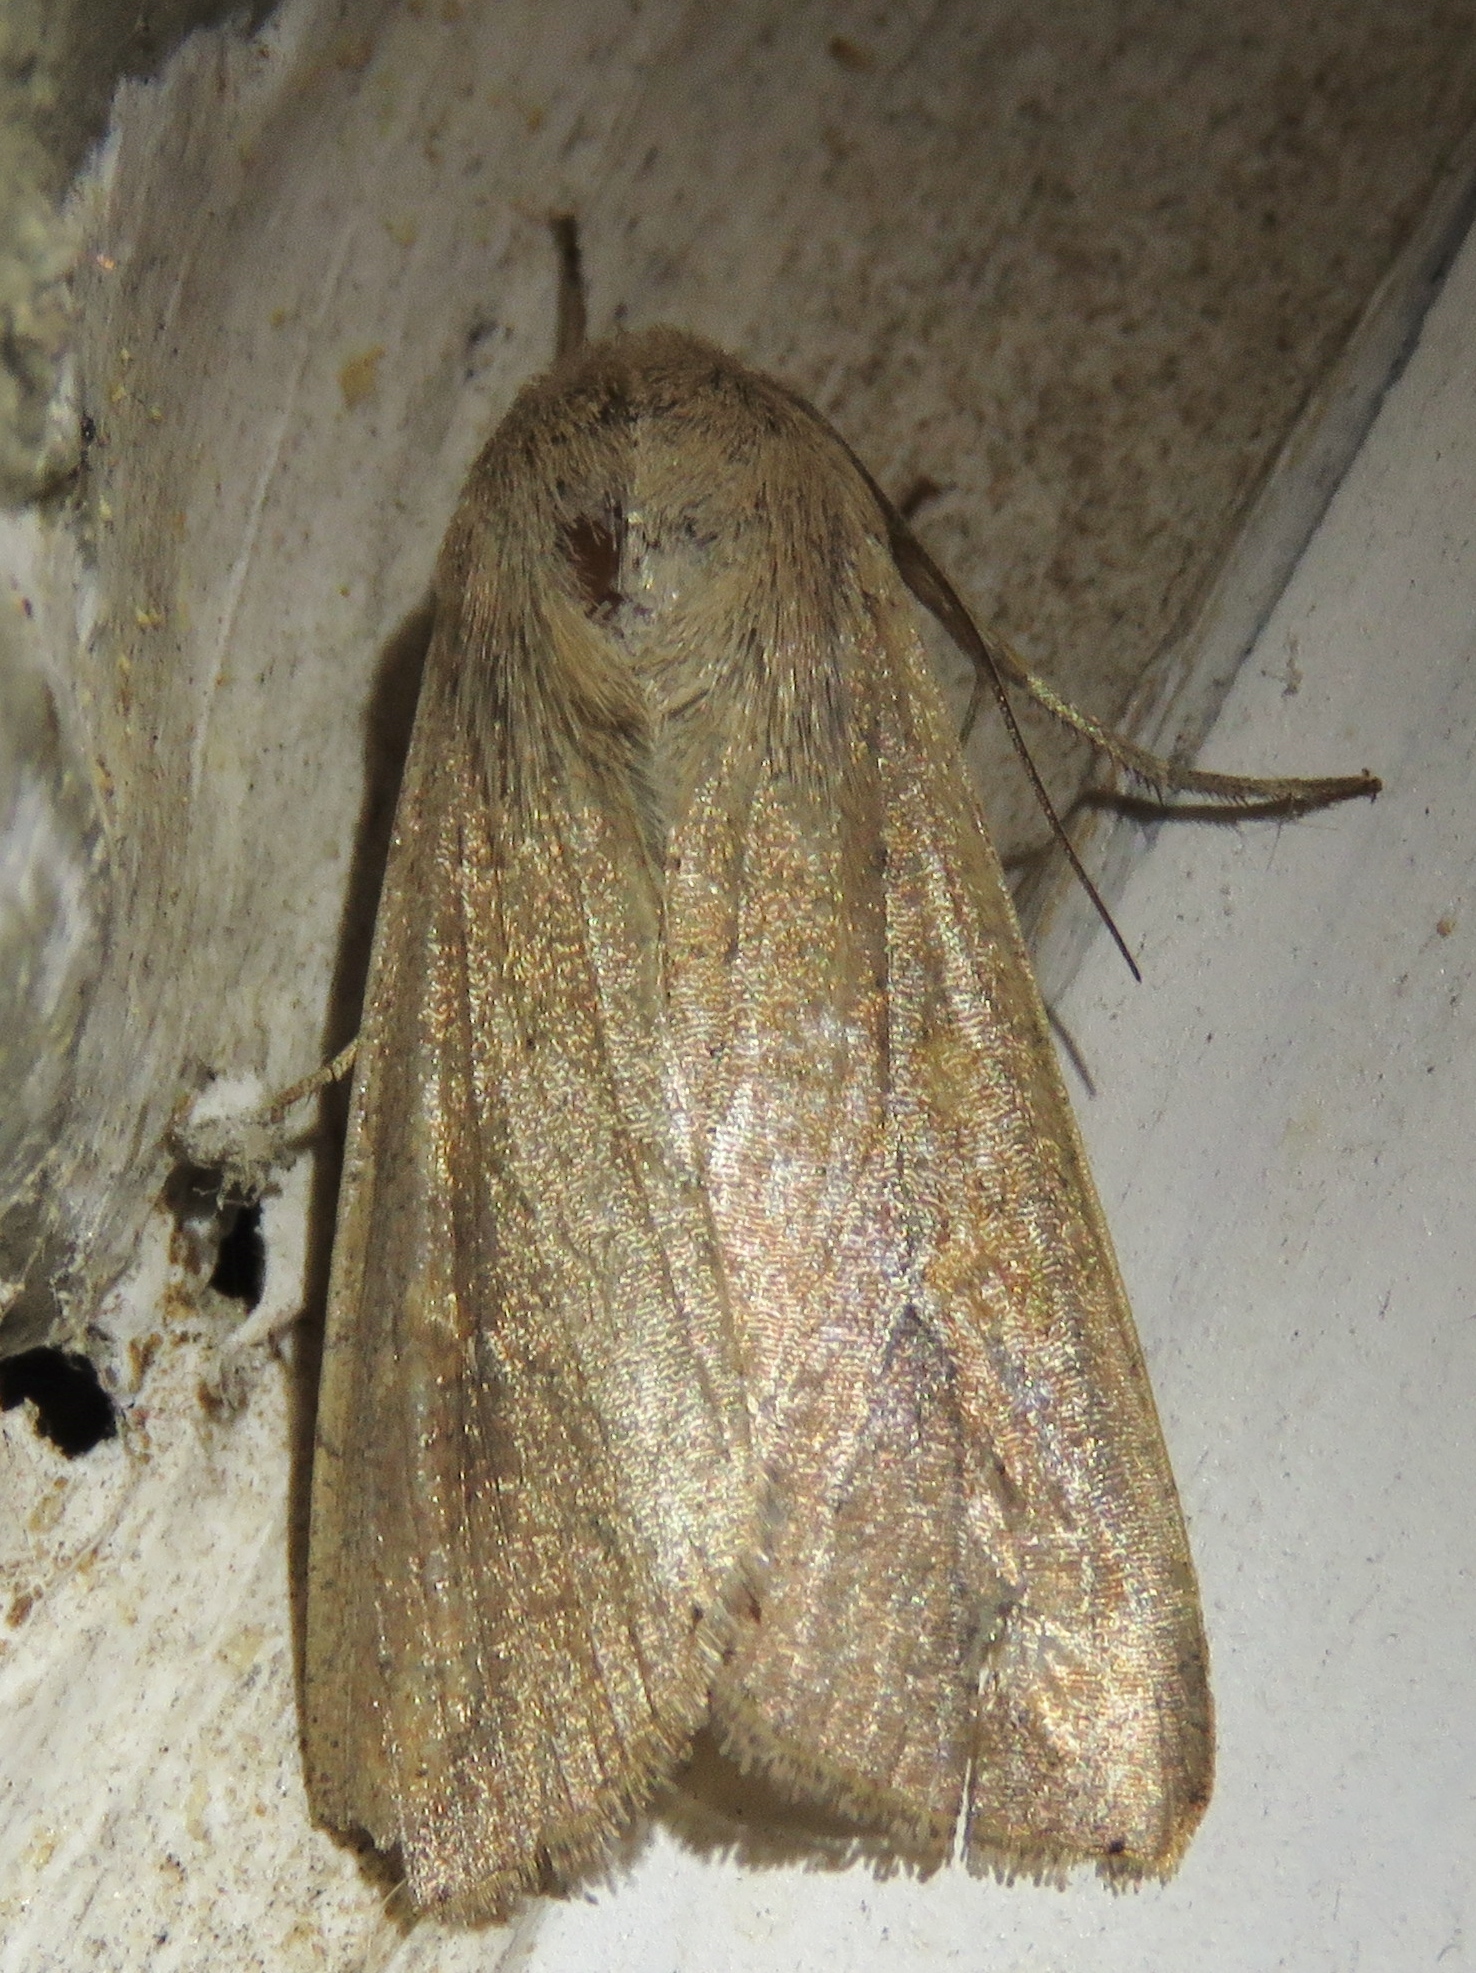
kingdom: Animalia
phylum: Arthropoda
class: Insecta
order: Lepidoptera
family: Noctuidae
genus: Mythimna
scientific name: Mythimna unipuncta
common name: White-speck
